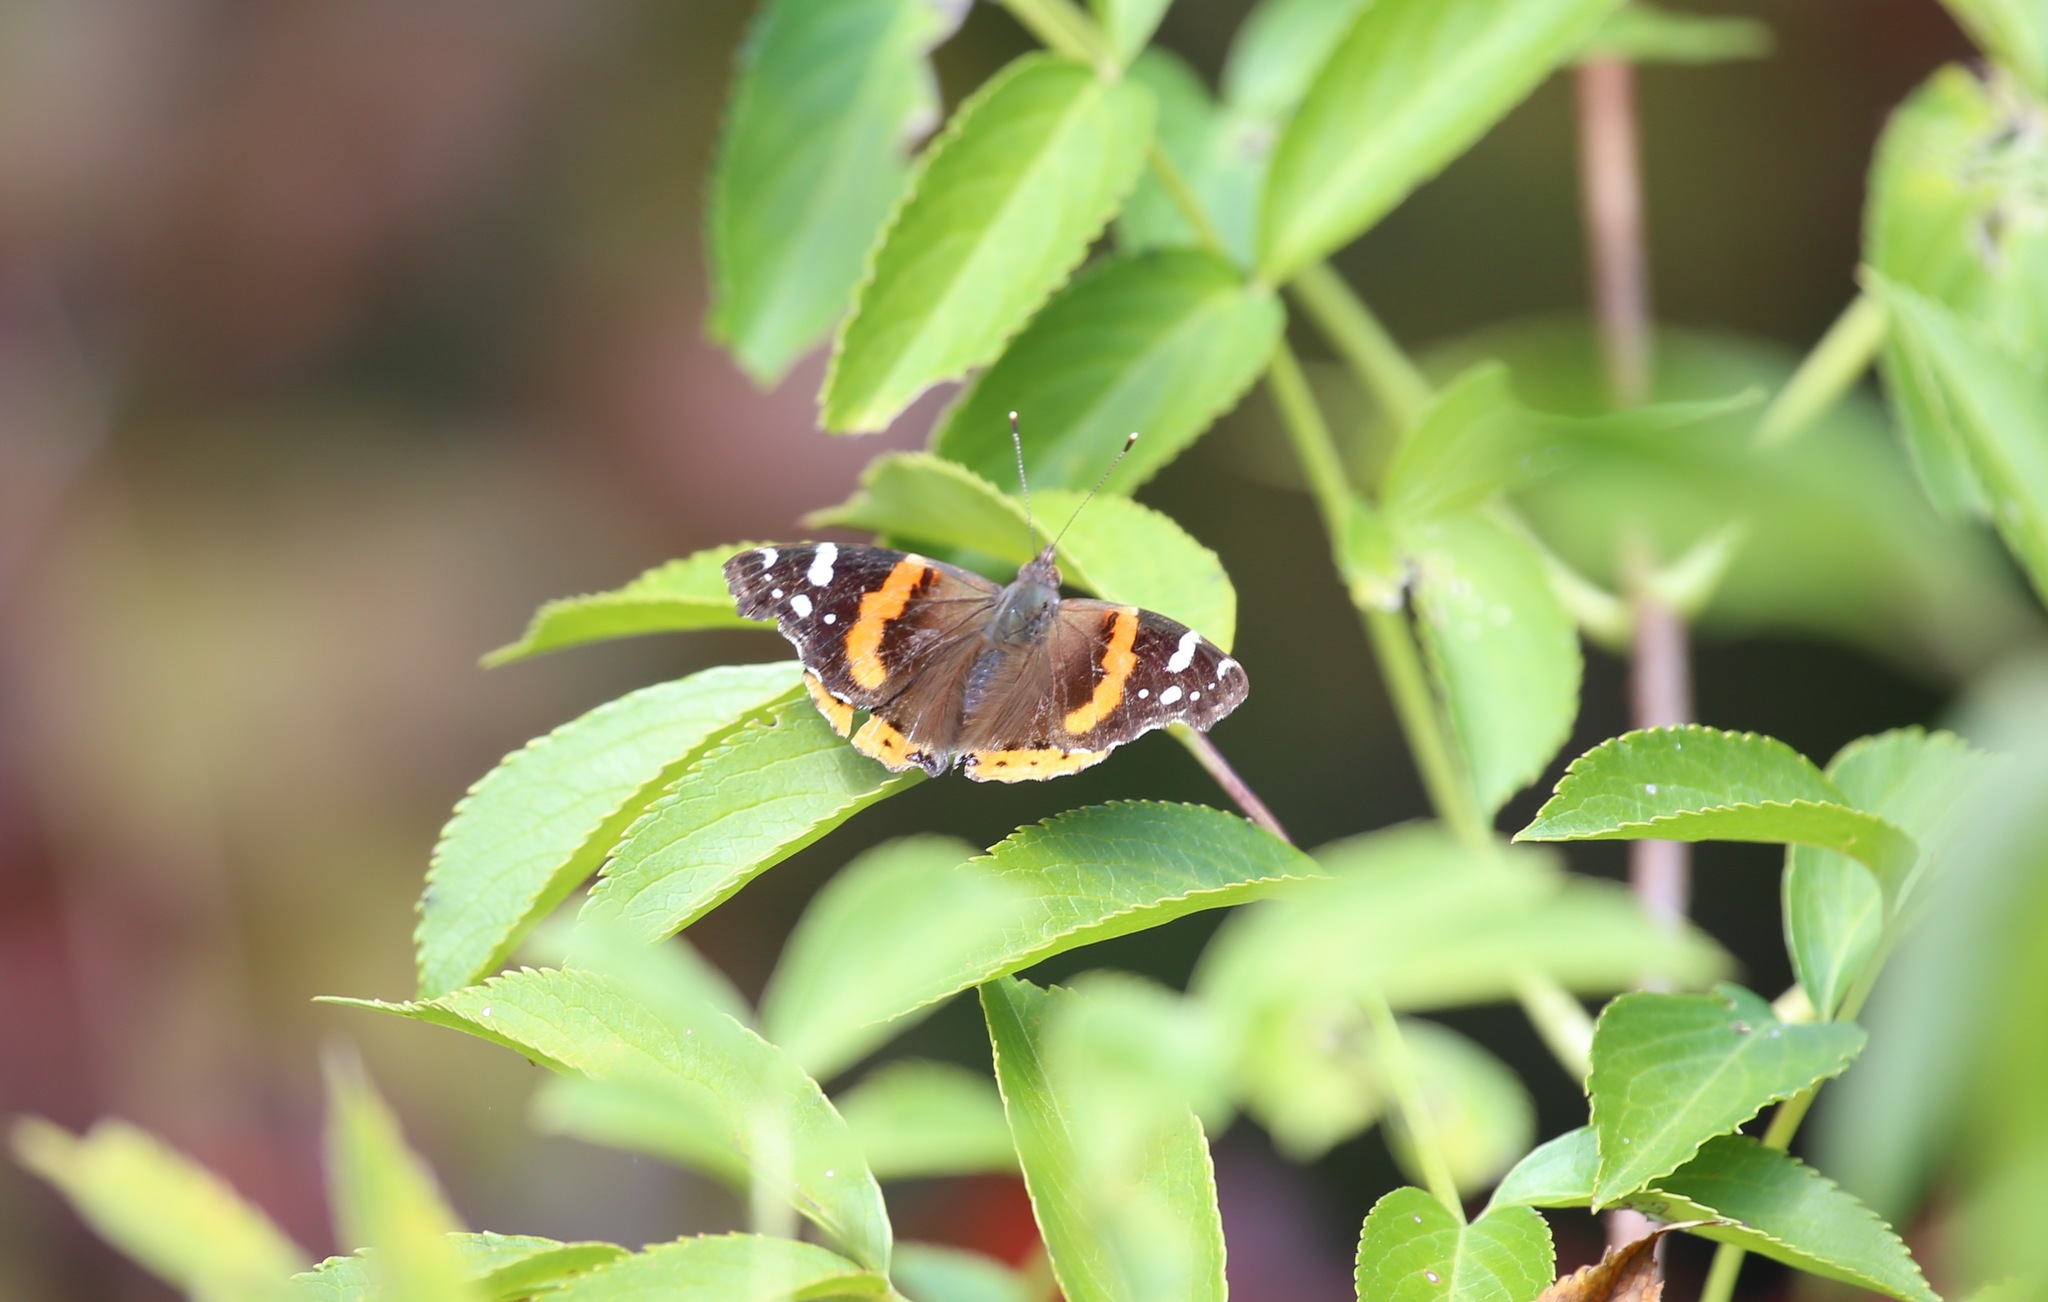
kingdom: Animalia
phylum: Arthropoda
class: Insecta
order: Lepidoptera
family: Nymphalidae
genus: Vanessa
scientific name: Vanessa atalanta
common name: Red admiral
